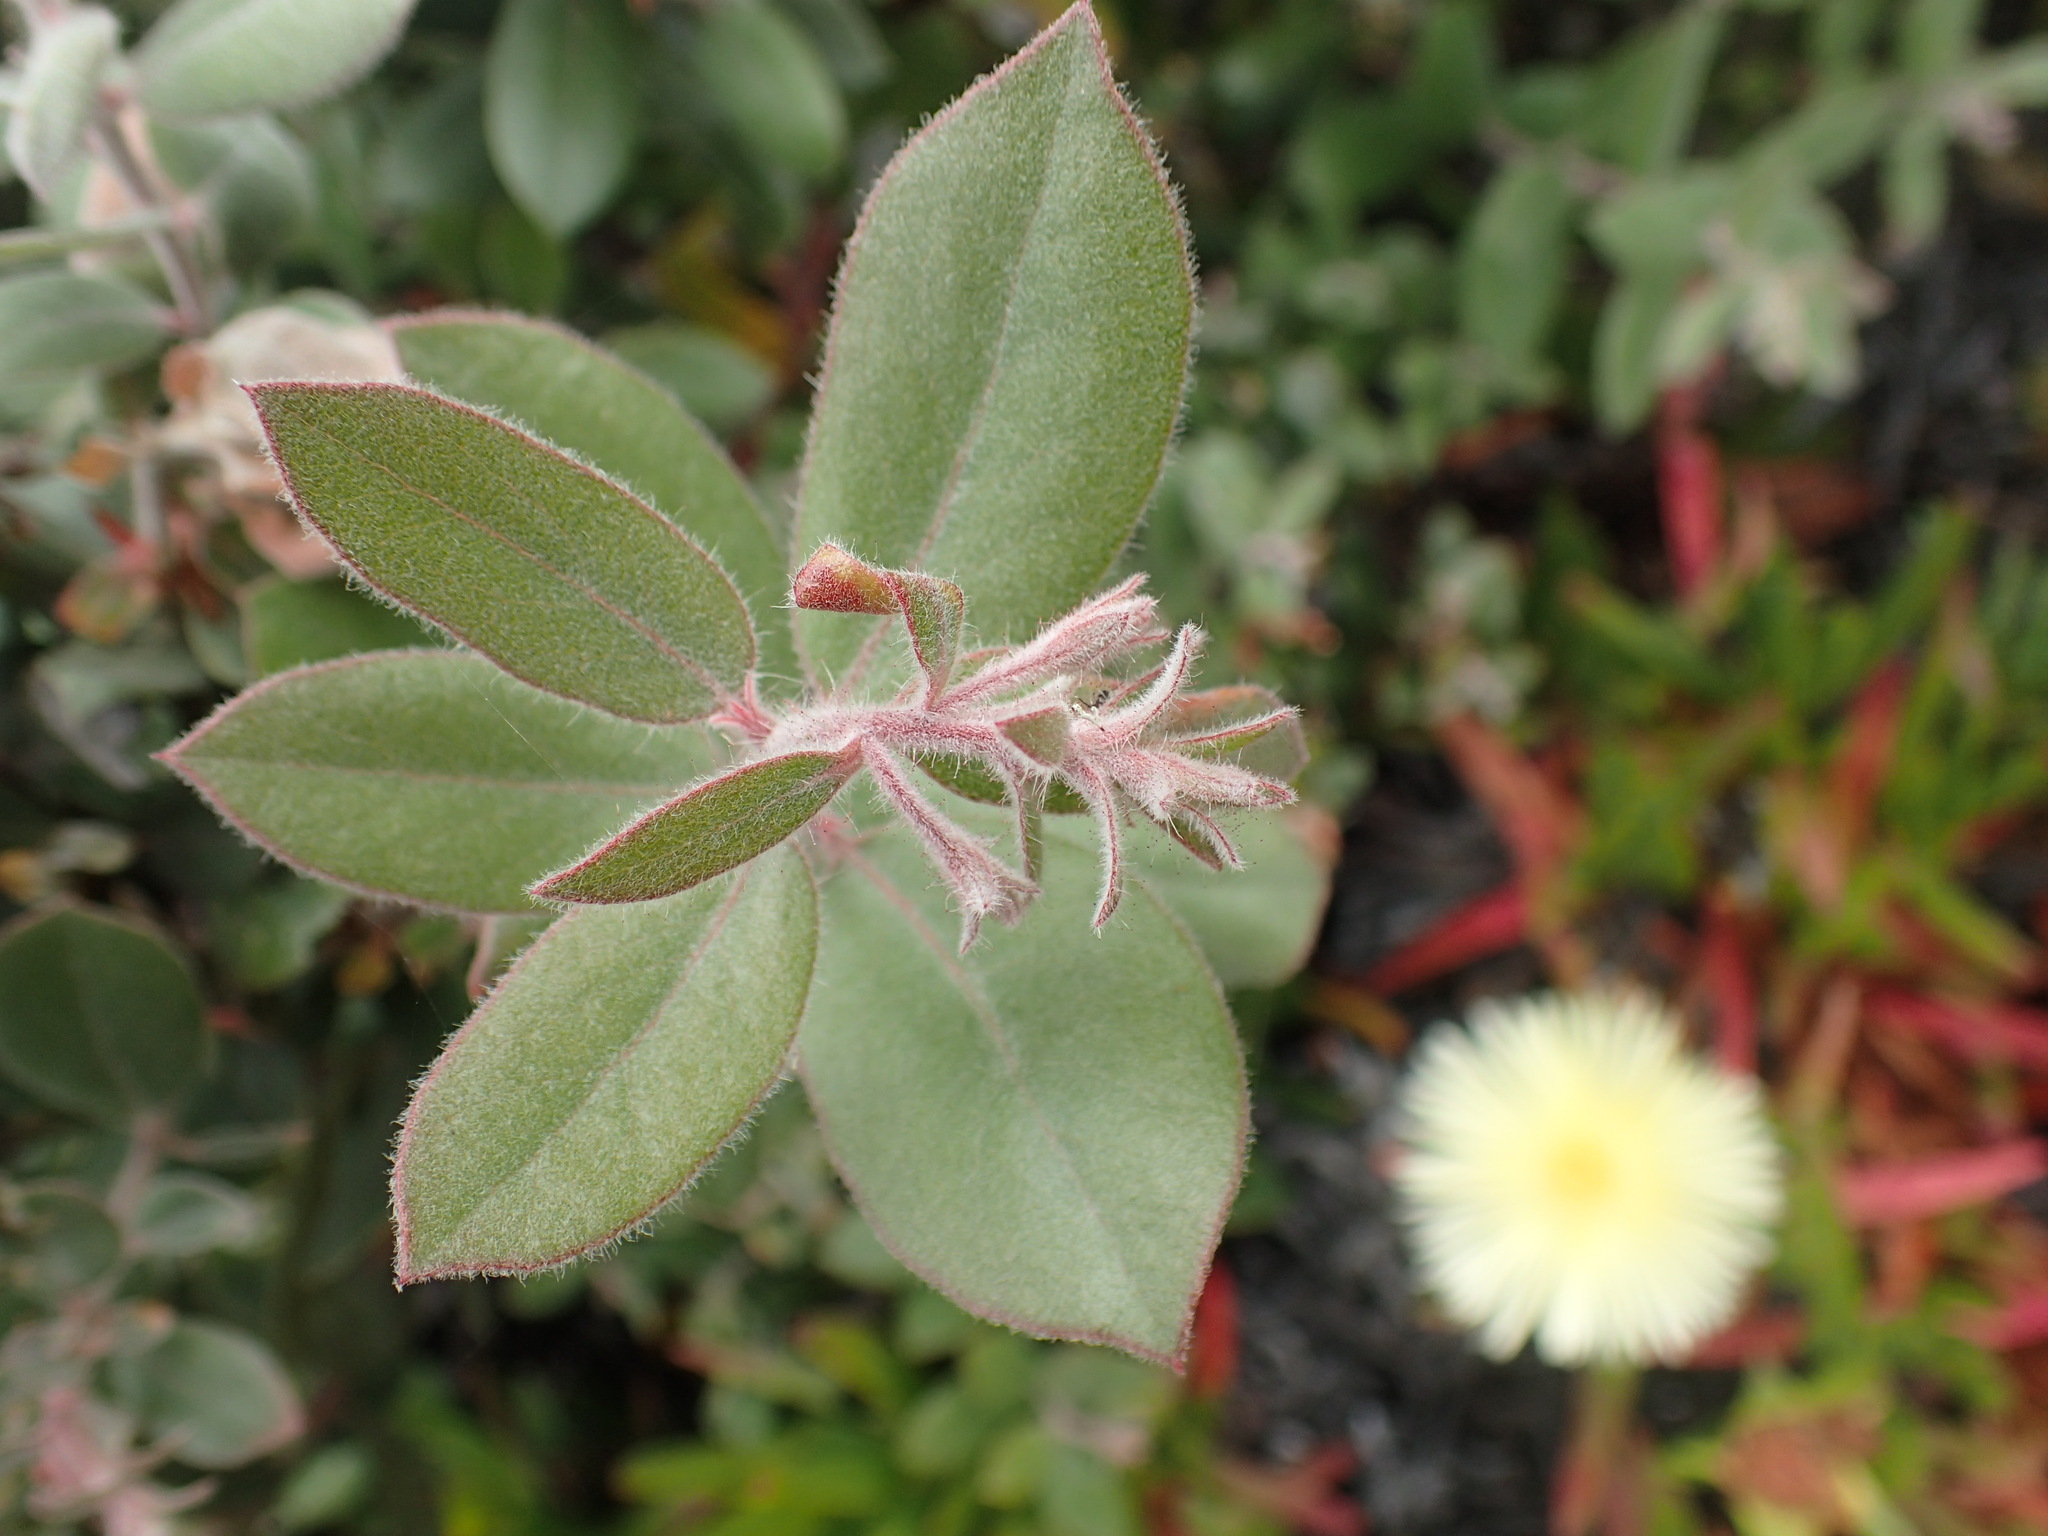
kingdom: Plantae
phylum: Tracheophyta
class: Magnoliopsida
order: Ericales
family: Ericaceae
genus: Arctostaphylos
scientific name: Arctostaphylos tomentosa
